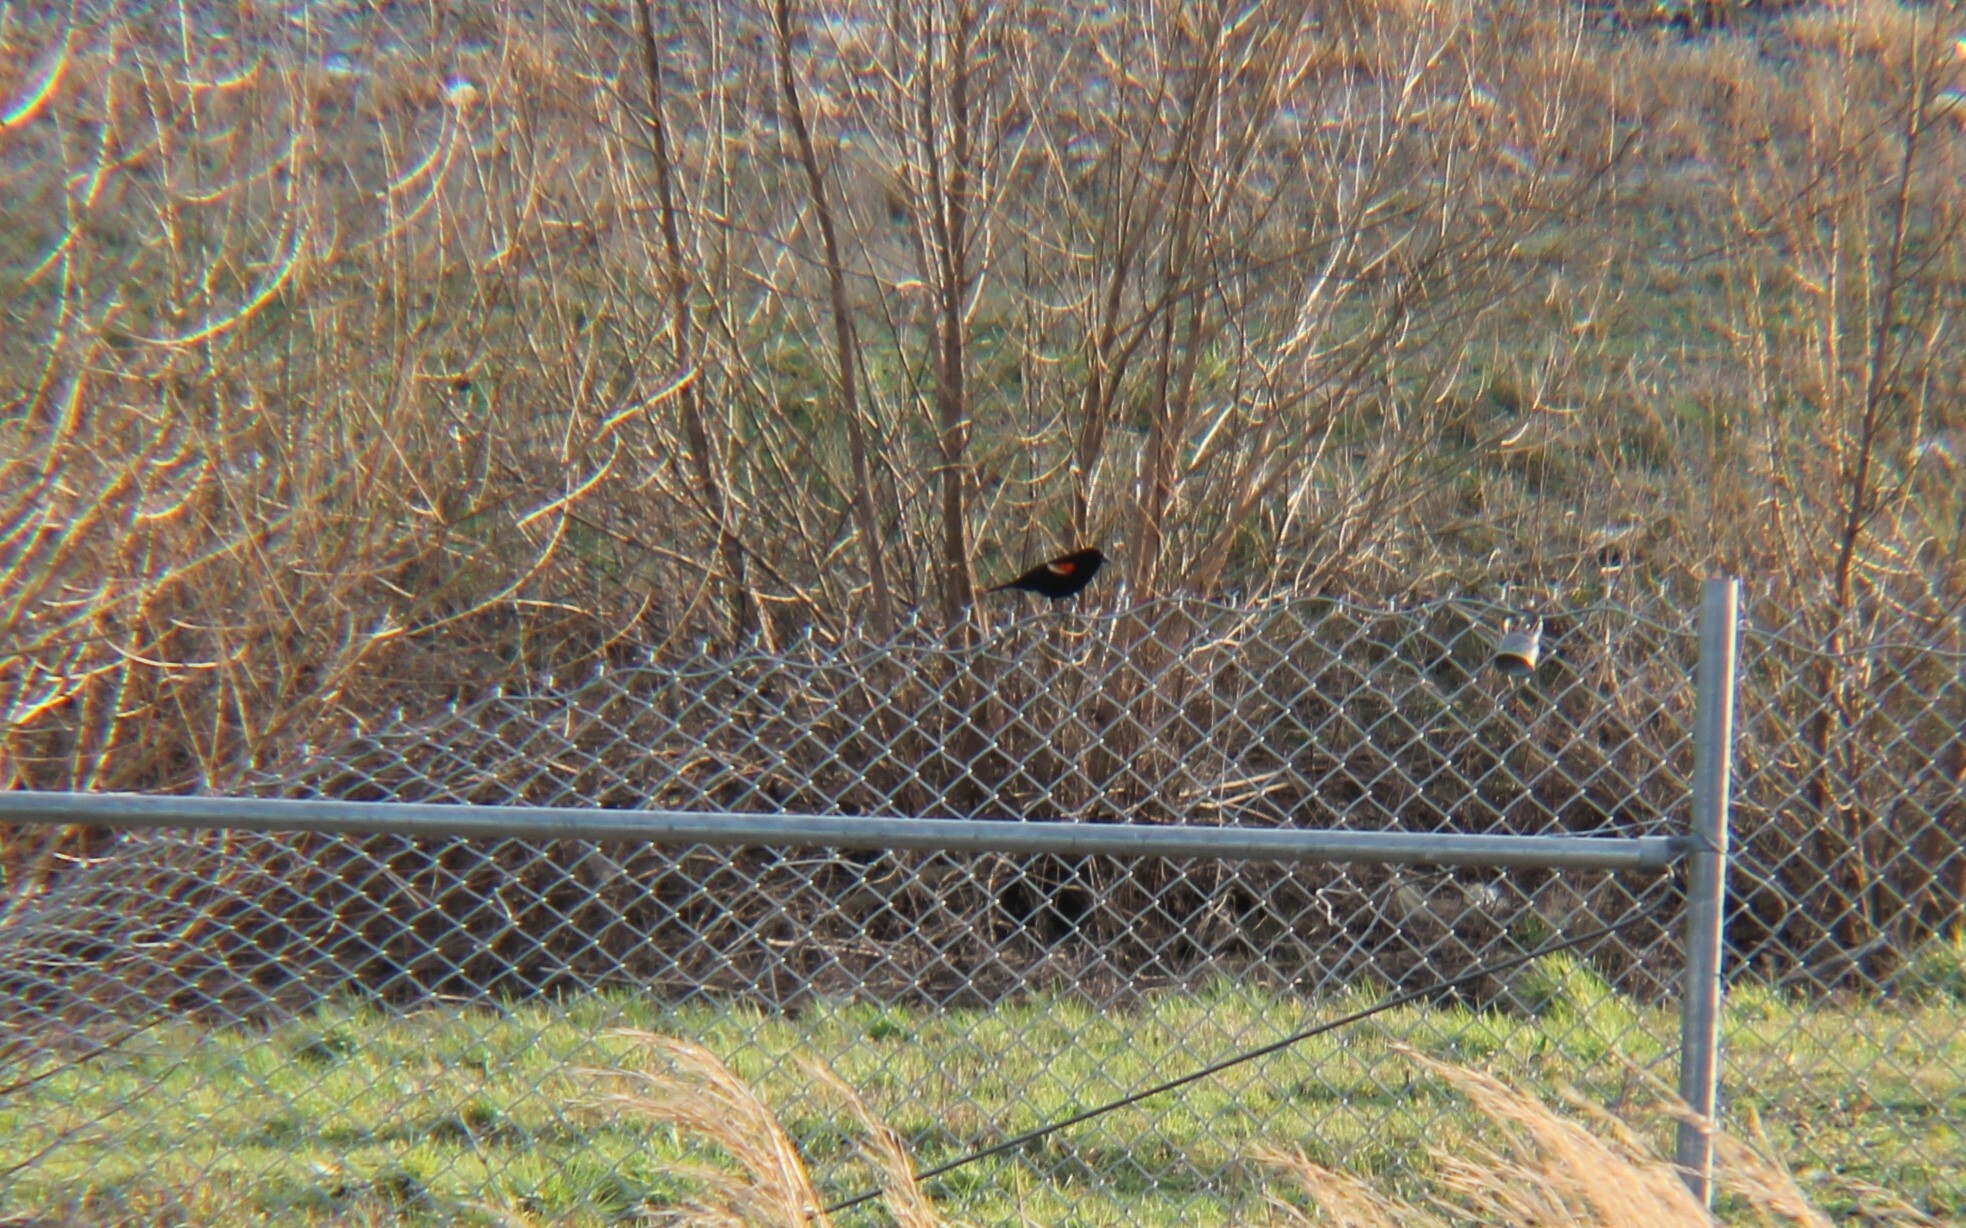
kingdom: Animalia
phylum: Chordata
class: Aves
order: Passeriformes
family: Icteridae
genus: Agelaius
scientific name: Agelaius phoeniceus
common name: Red-winged blackbird
